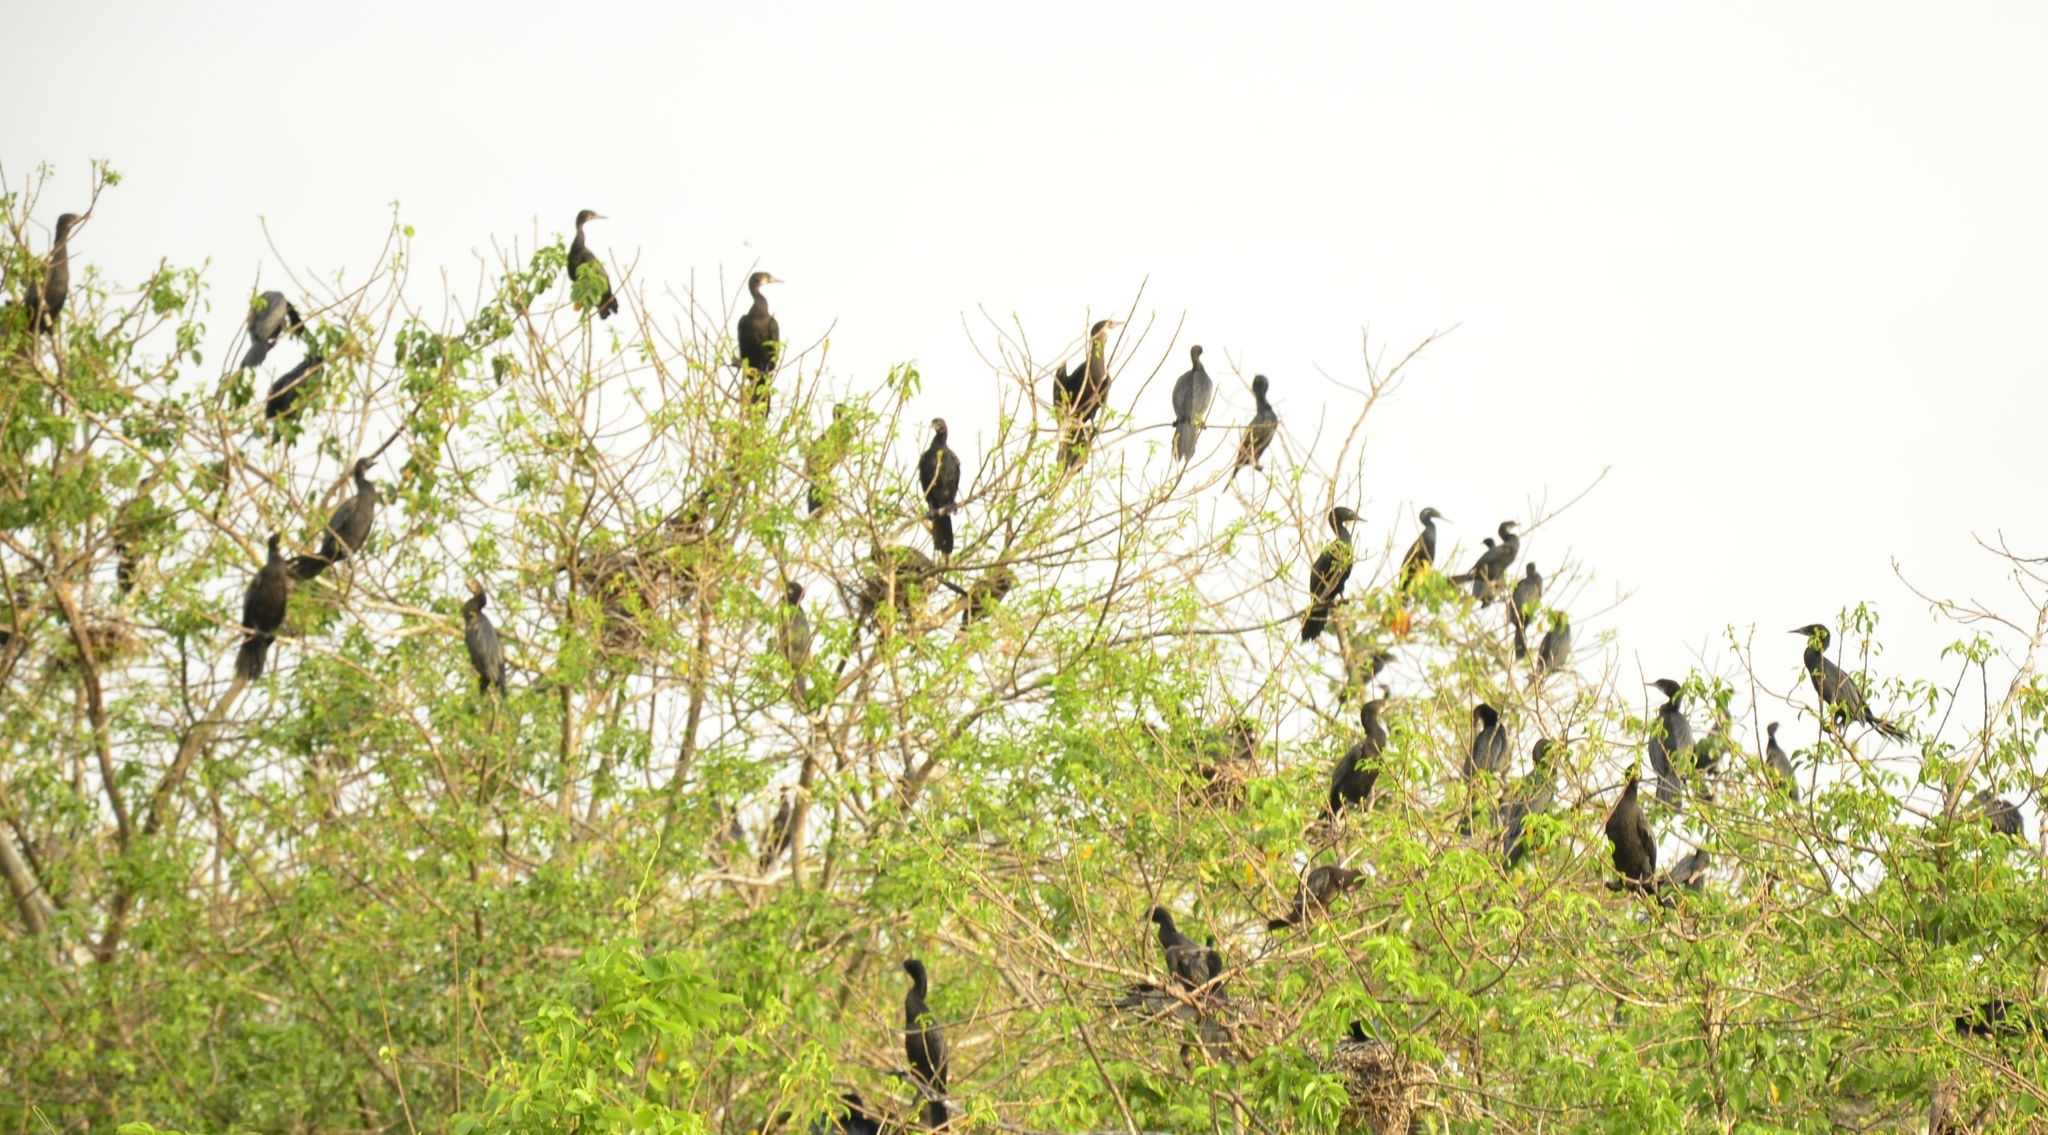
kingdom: Animalia
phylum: Chordata
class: Aves
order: Suliformes
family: Phalacrocoracidae
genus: Microcarbo
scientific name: Microcarbo niger
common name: Little cormorant
